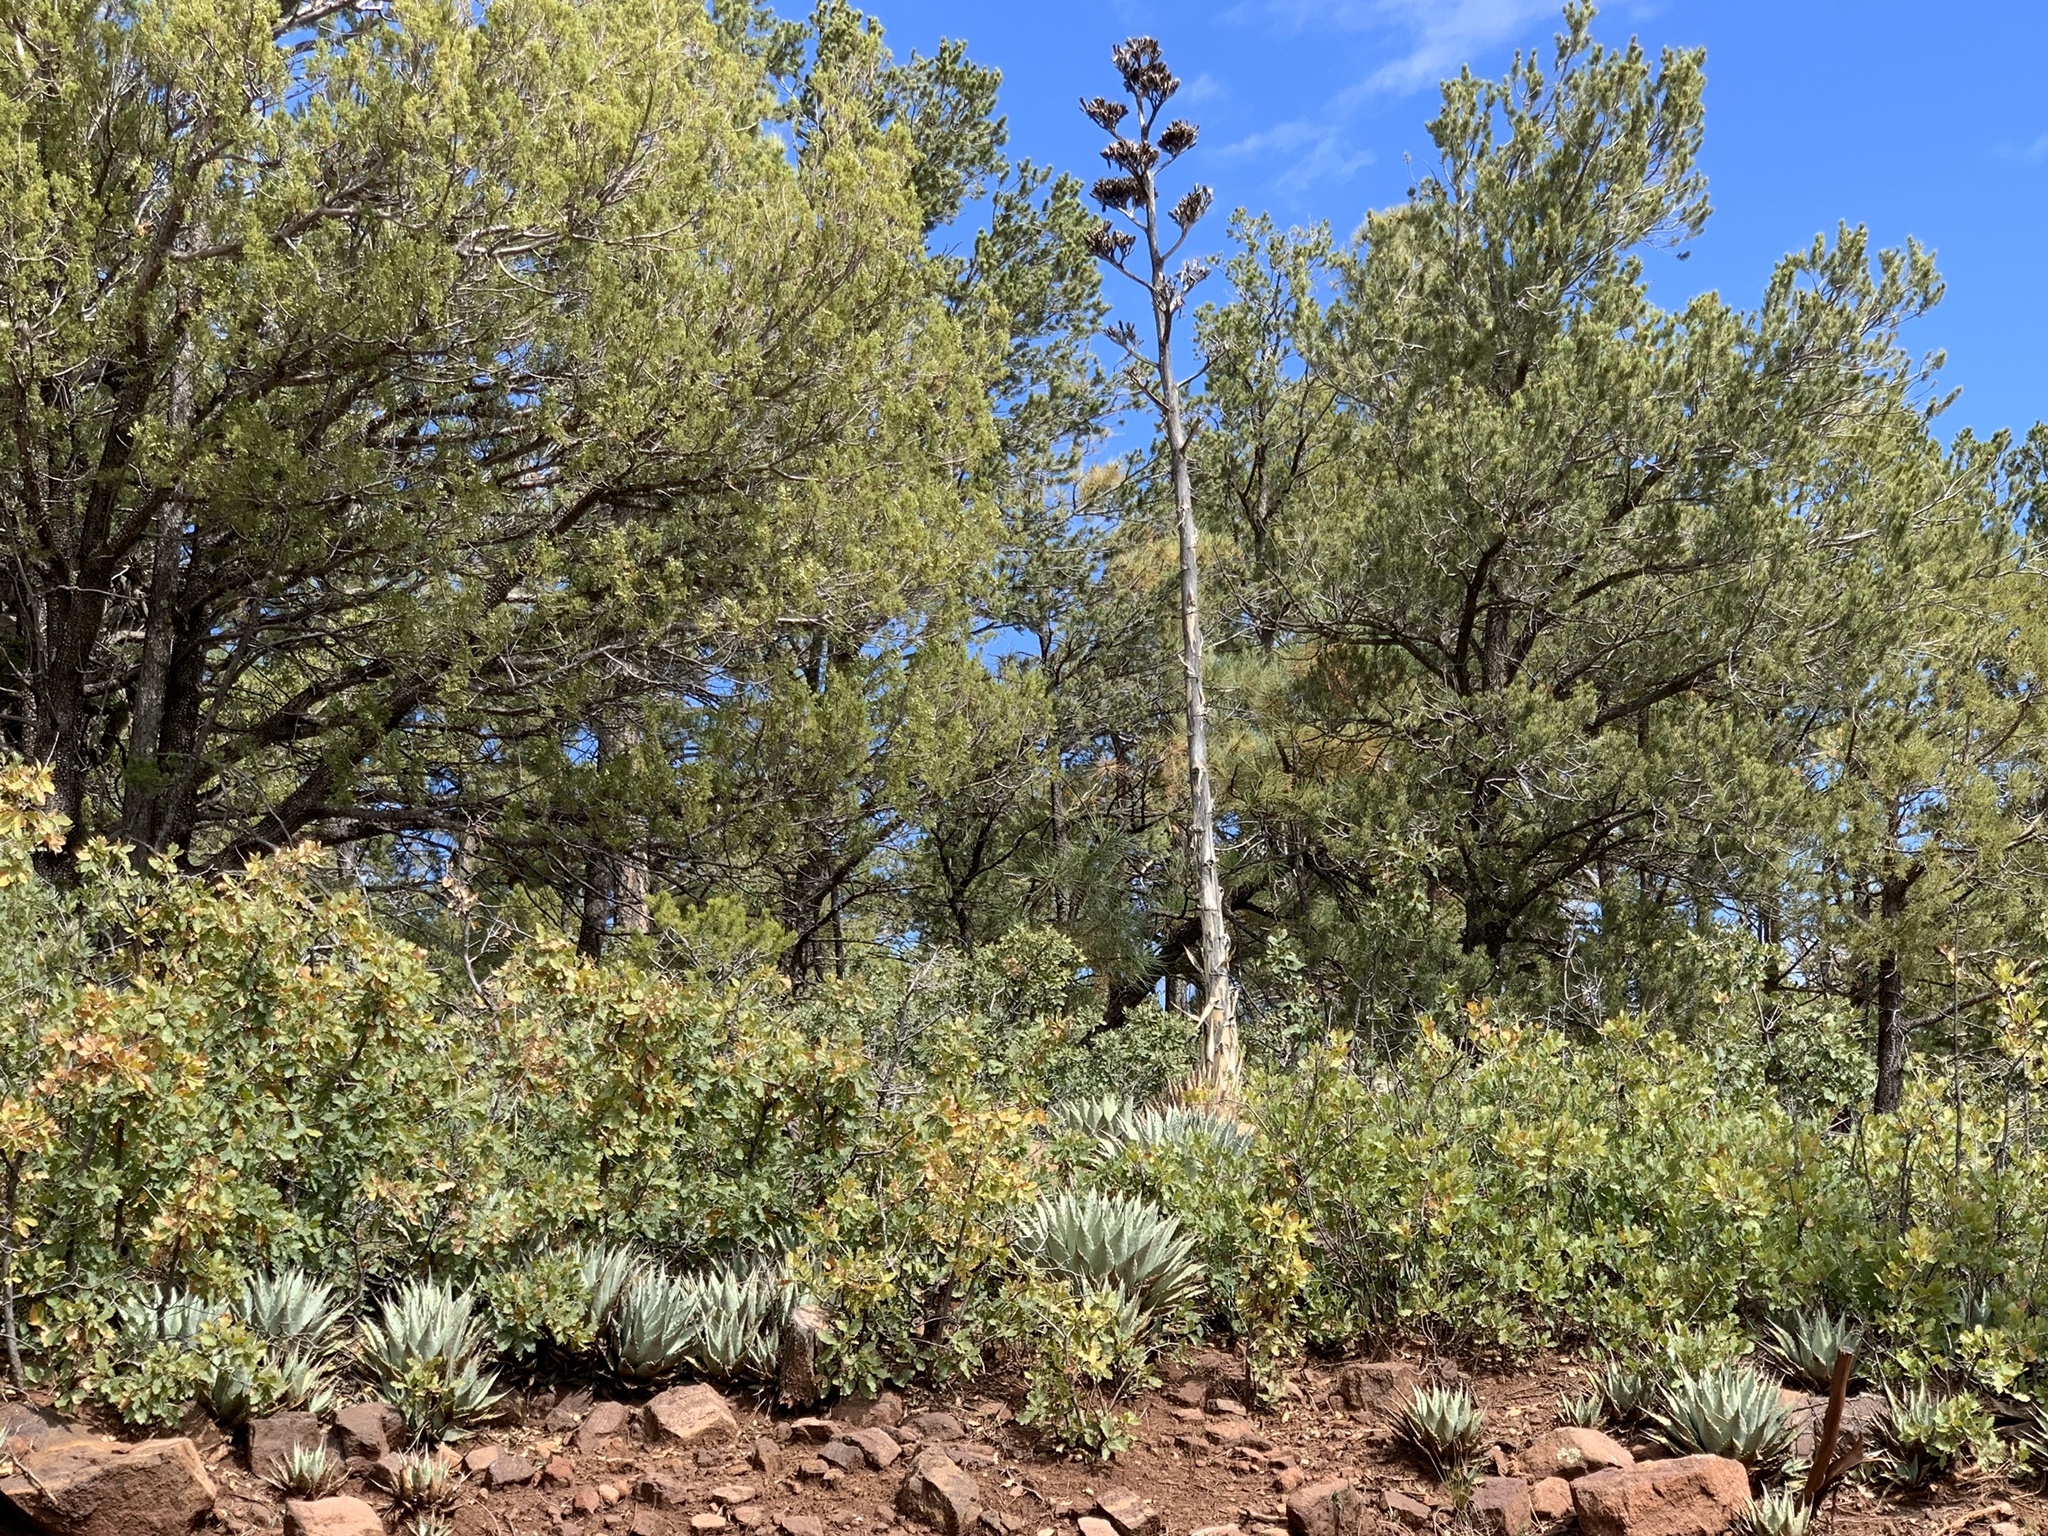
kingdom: Plantae
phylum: Tracheophyta
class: Liliopsida
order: Asparagales
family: Asparagaceae
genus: Agave
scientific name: Agave parryi
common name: Parry's agave
